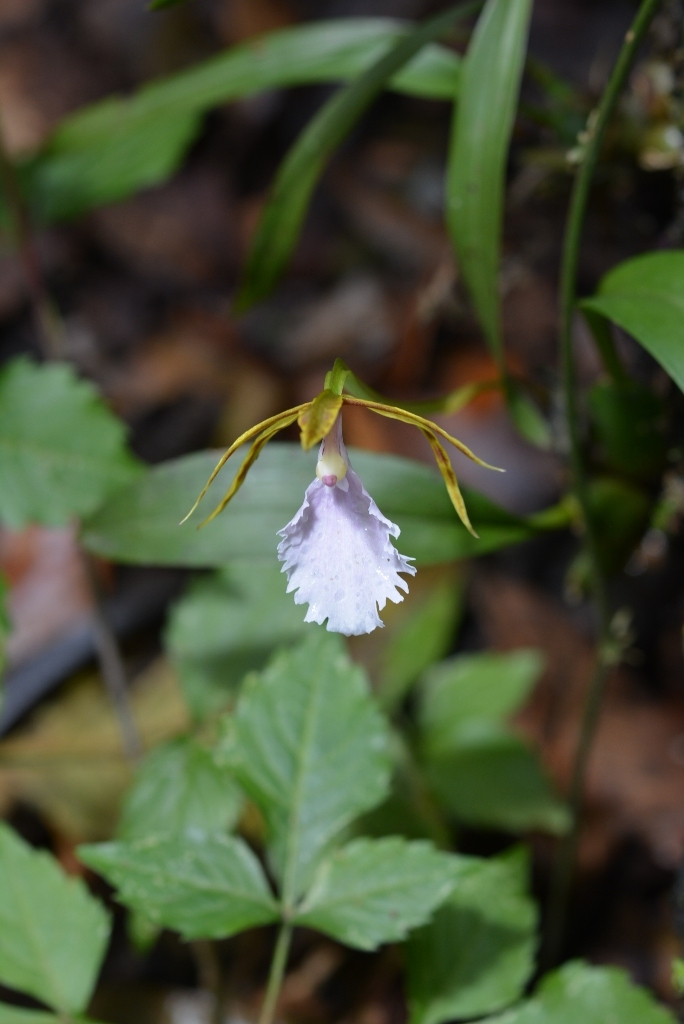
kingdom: Plantae
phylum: Tracheophyta
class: Liliopsida
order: Asparagales
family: Orchidaceae
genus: Rhynchostele
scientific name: Rhynchostele stellata
